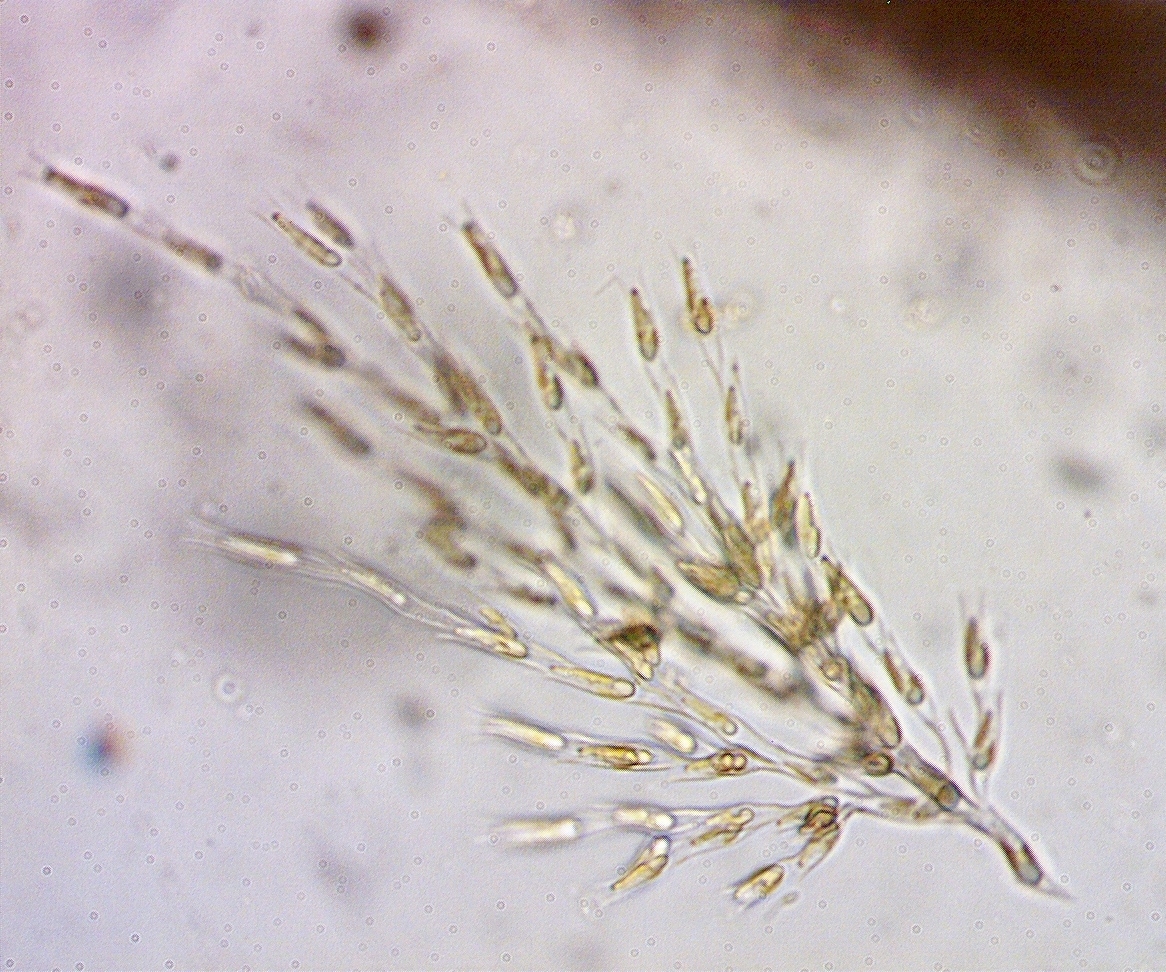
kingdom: Chromista
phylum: Ochrophyta
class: Chrysophyceae
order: Chromulinales
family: Dinobryaceae
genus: Dinobryon
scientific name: Dinobryon
